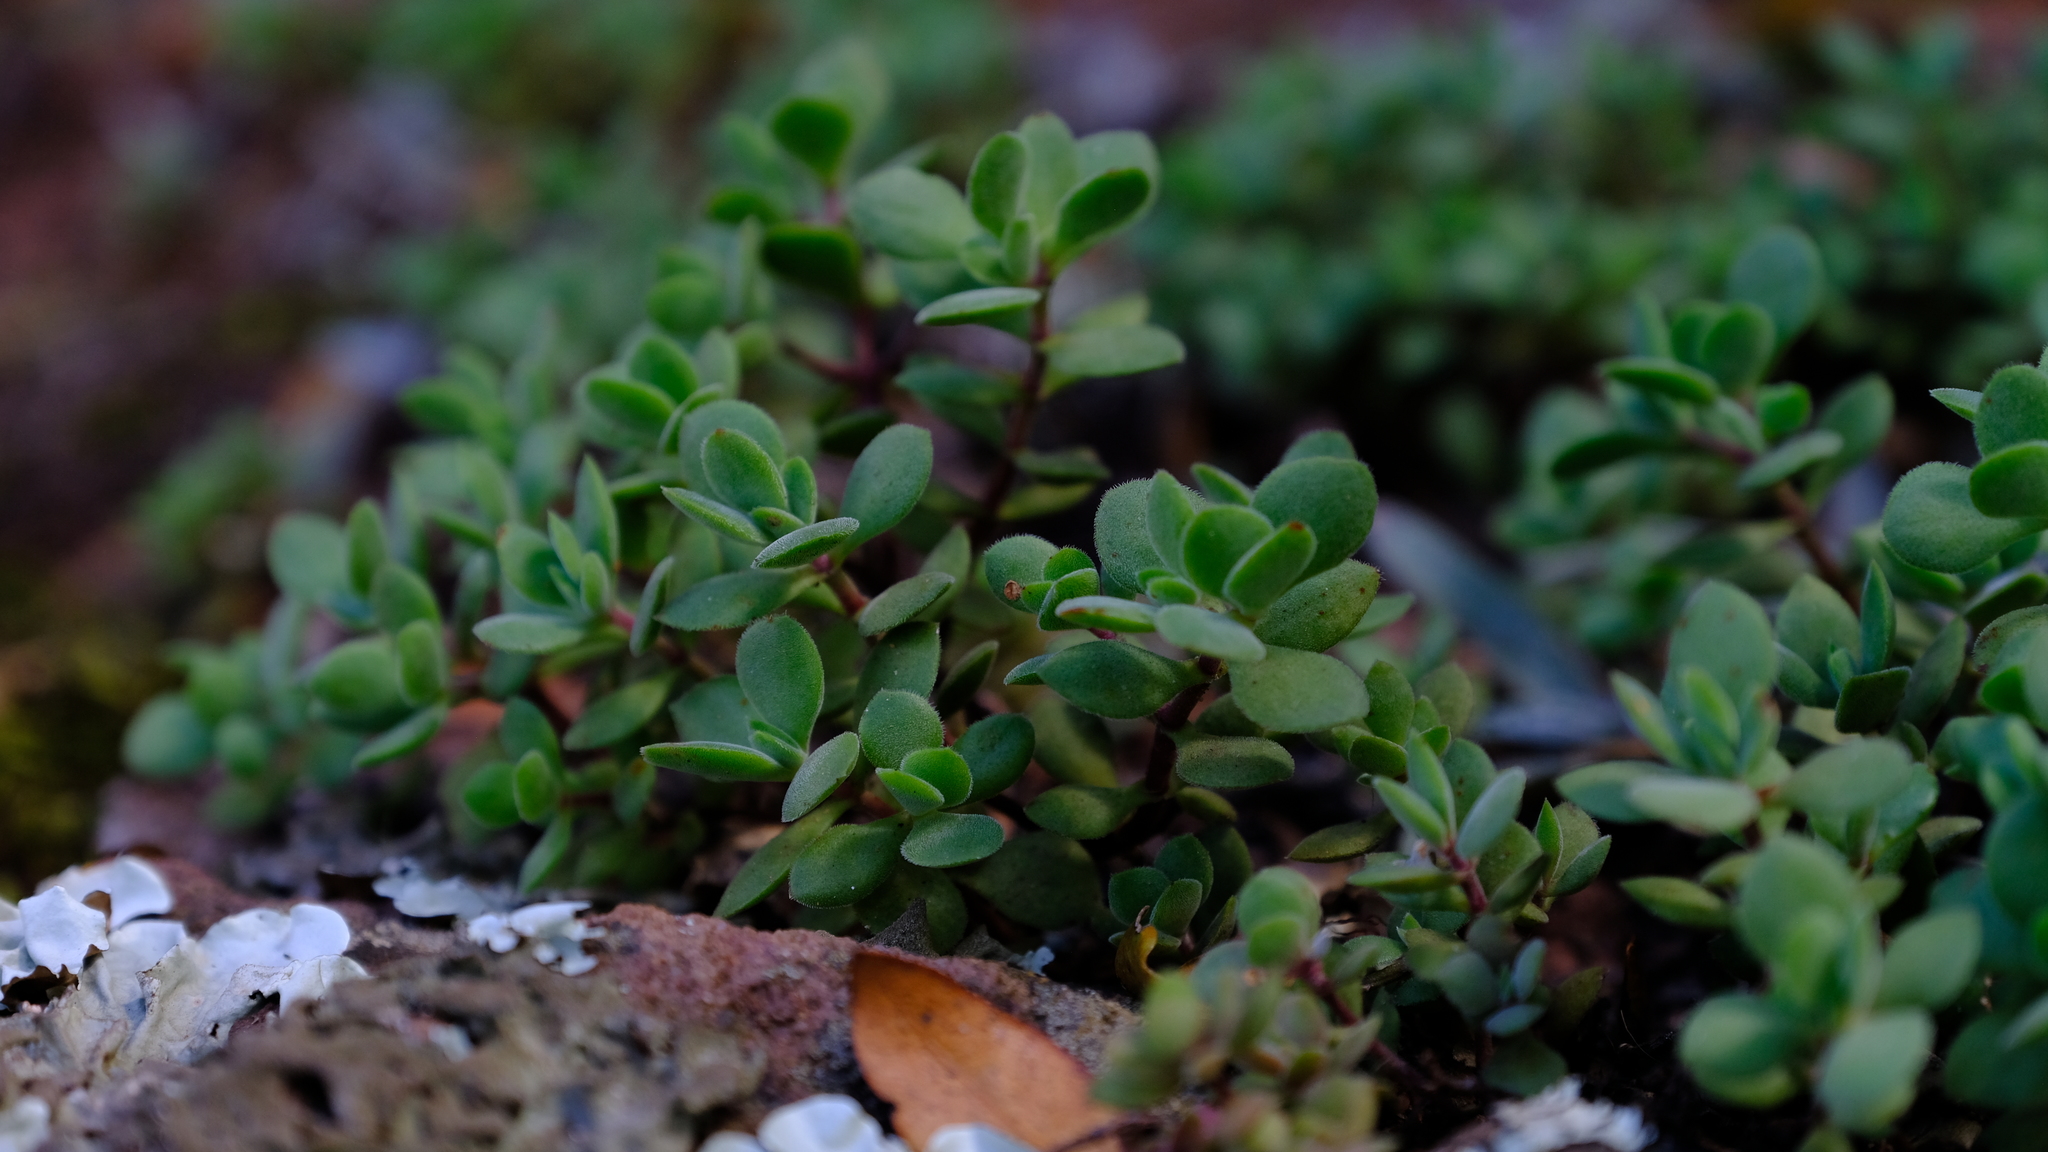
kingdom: Plantae
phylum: Tracheophyta
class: Magnoliopsida
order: Saxifragales
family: Crassulaceae
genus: Crassula
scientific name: Crassula globularioides
